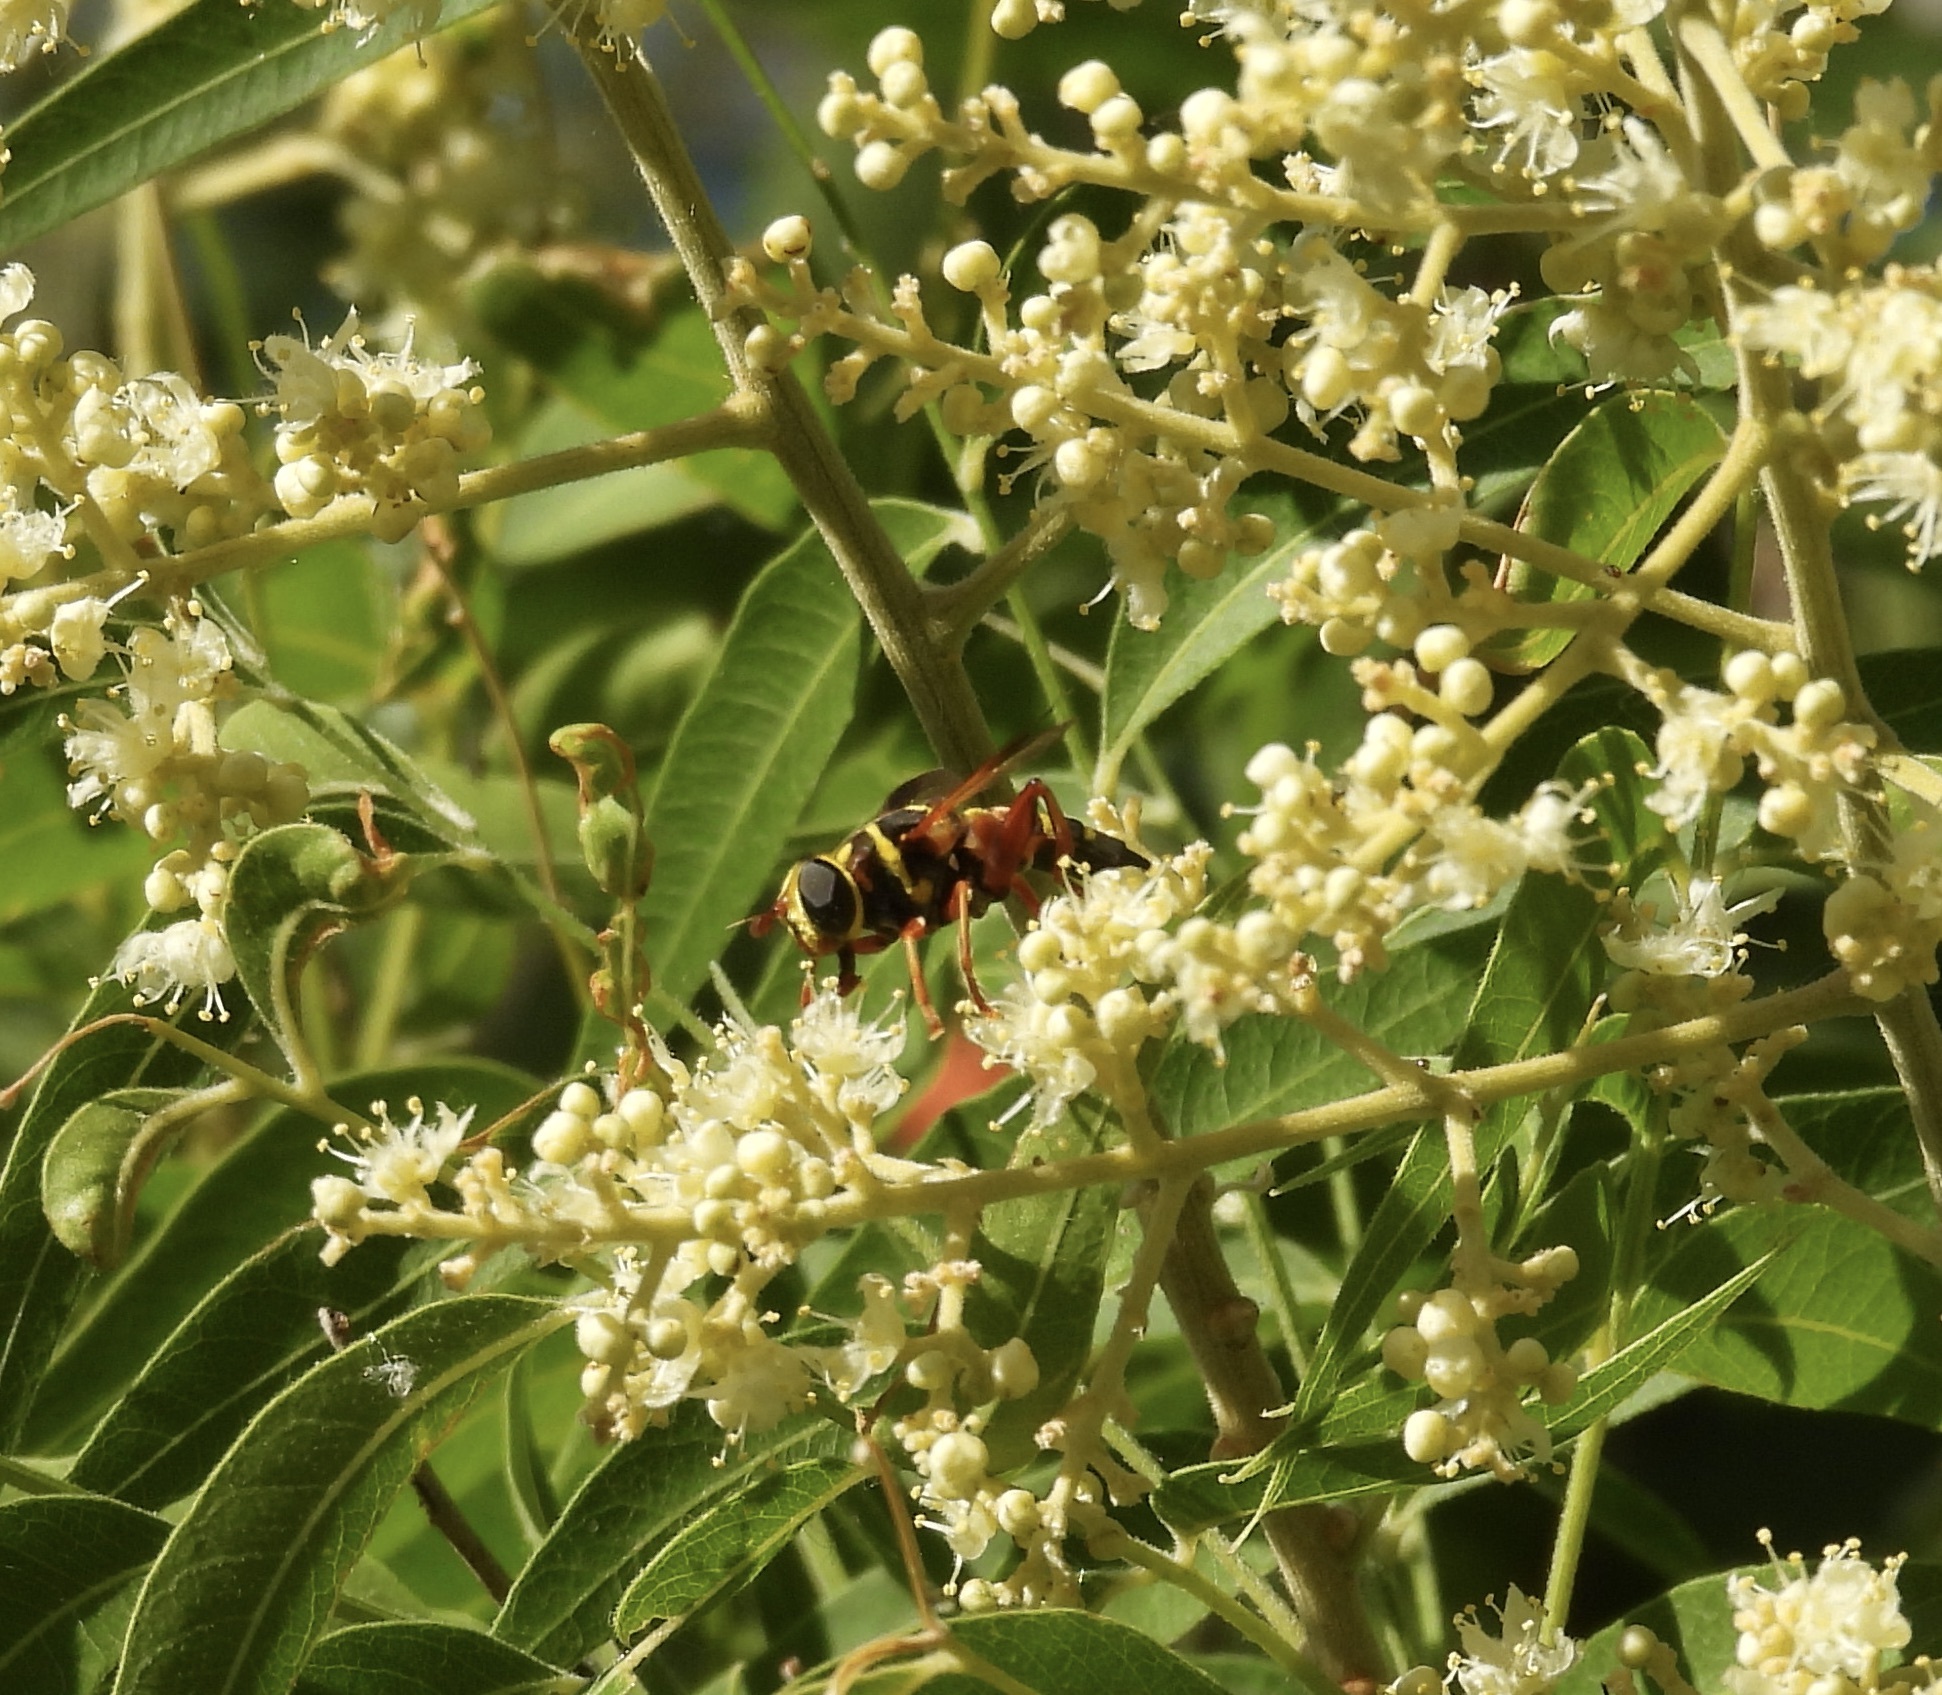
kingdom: Animalia
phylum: Arthropoda
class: Insecta
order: Diptera
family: Syrphidae
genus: Meromacrus
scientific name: Meromacrus gloriosus
